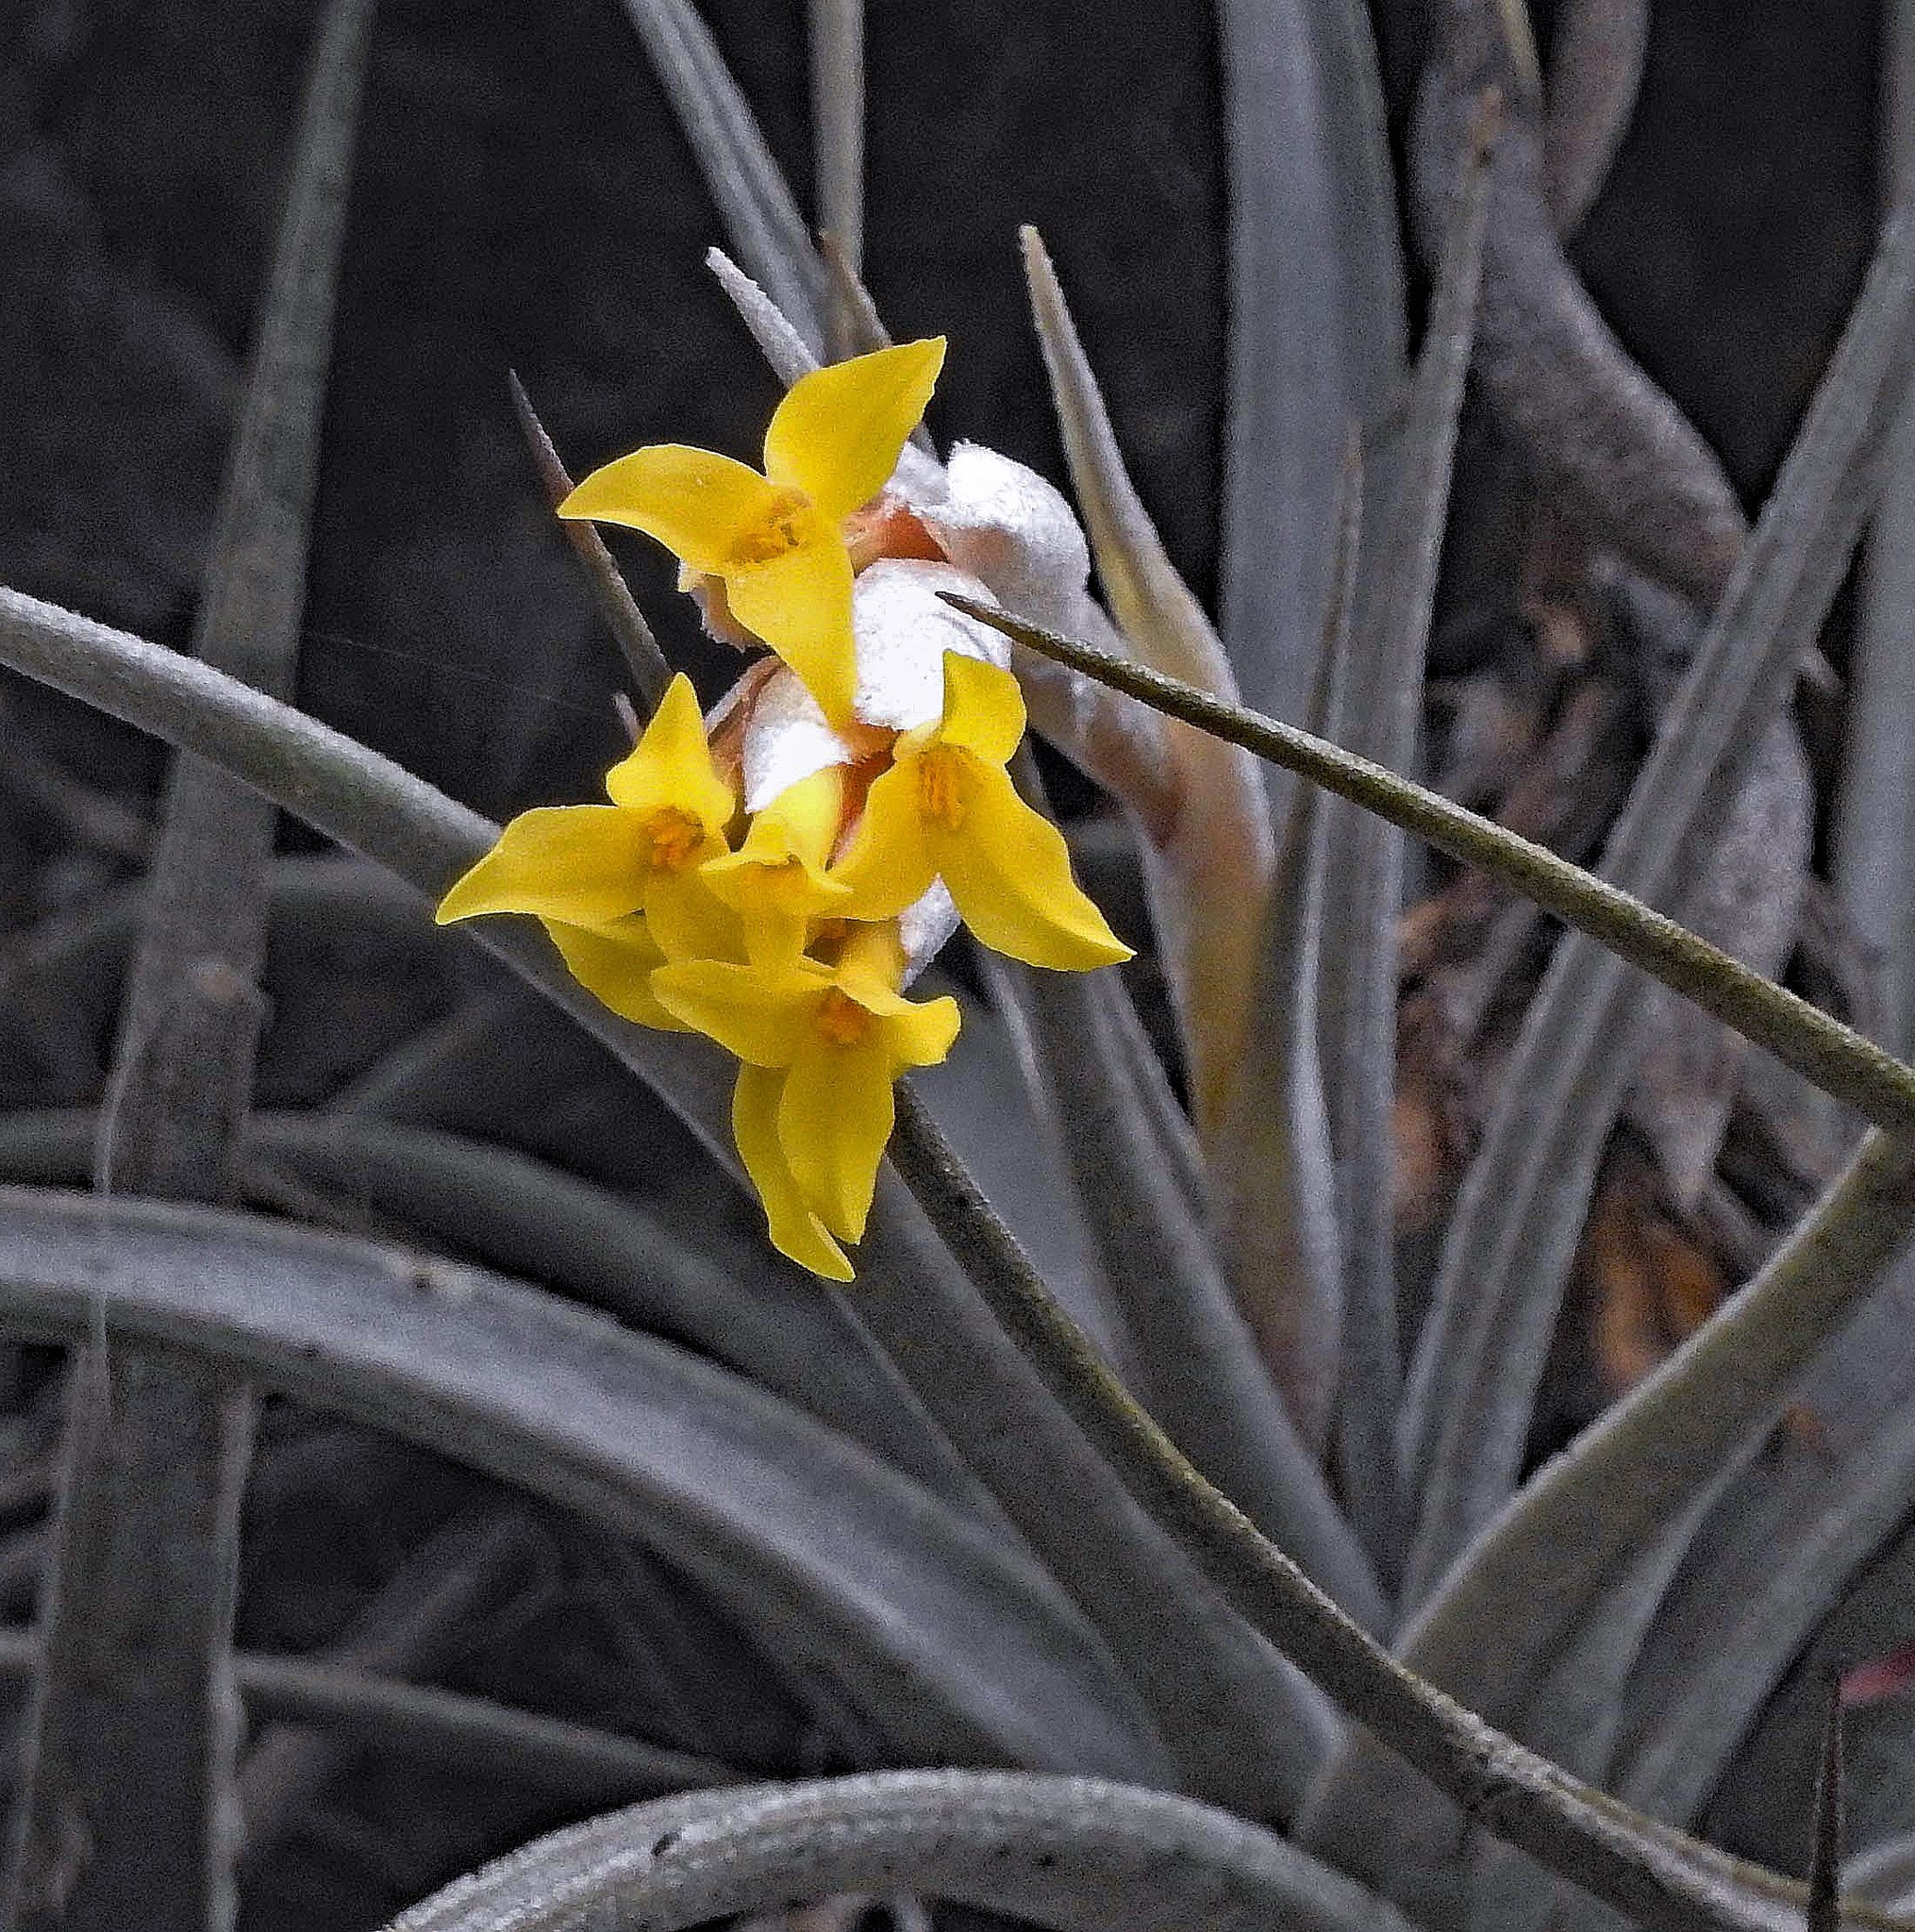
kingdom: Plantae
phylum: Tracheophyta
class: Liliopsida
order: Poales
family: Bromeliaceae
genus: Tillandsia
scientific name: Tillandsia ixioides
